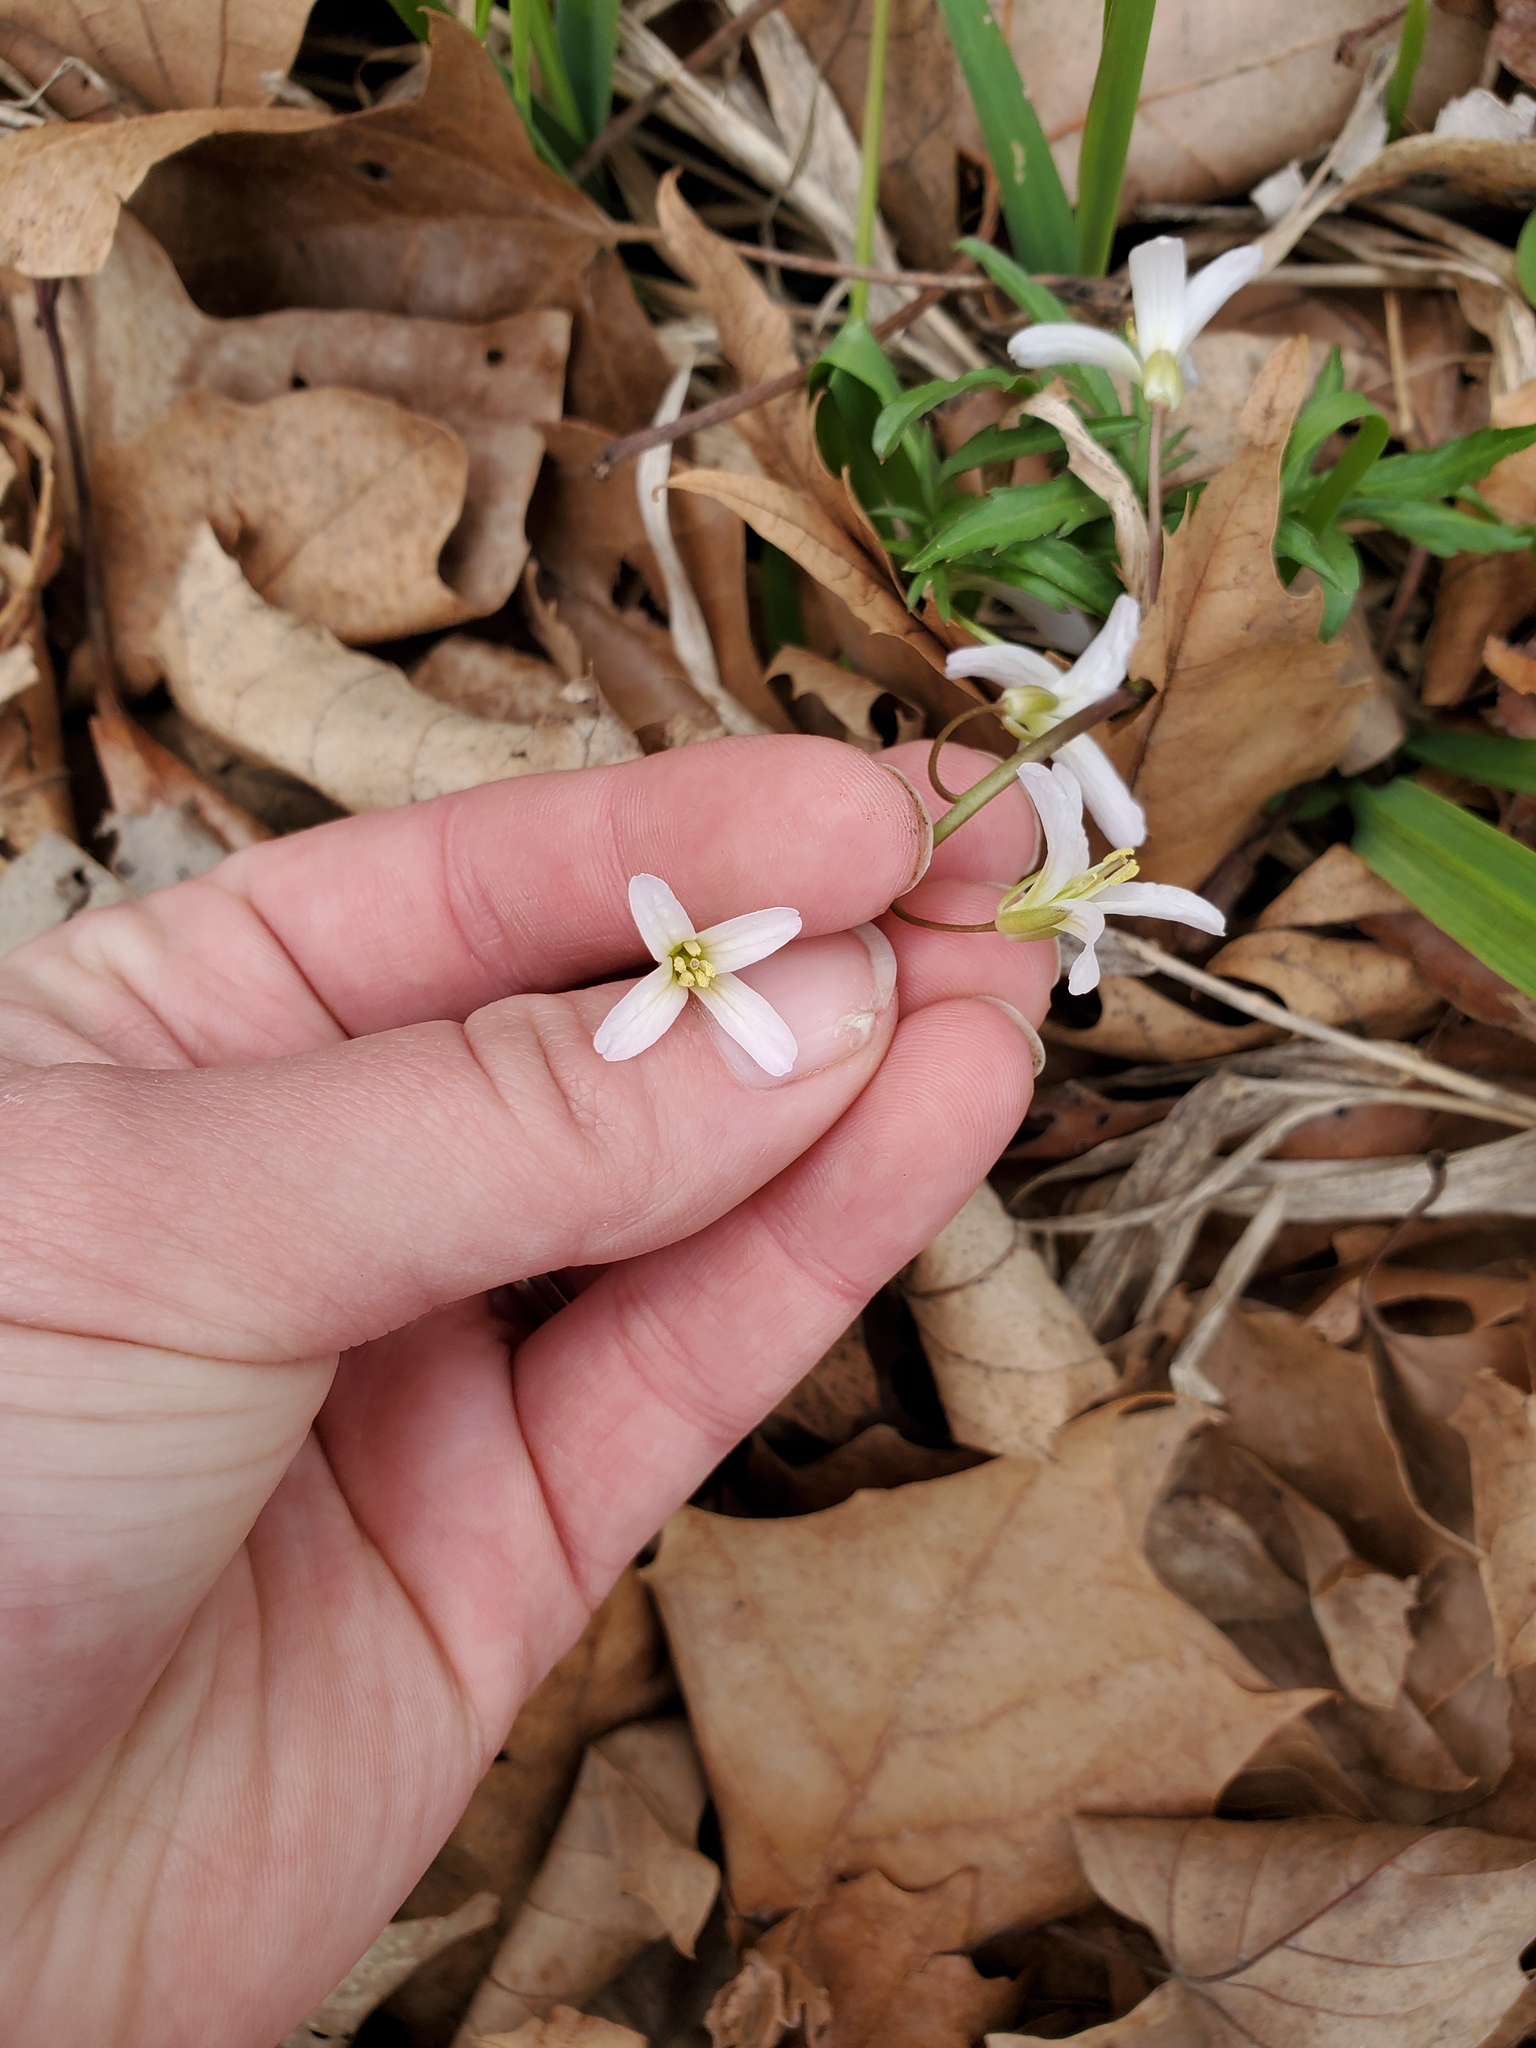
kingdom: Plantae
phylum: Tracheophyta
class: Magnoliopsida
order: Brassicales
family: Brassicaceae
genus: Cardamine
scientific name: Cardamine concatenata
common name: Cut-leaf toothcup
